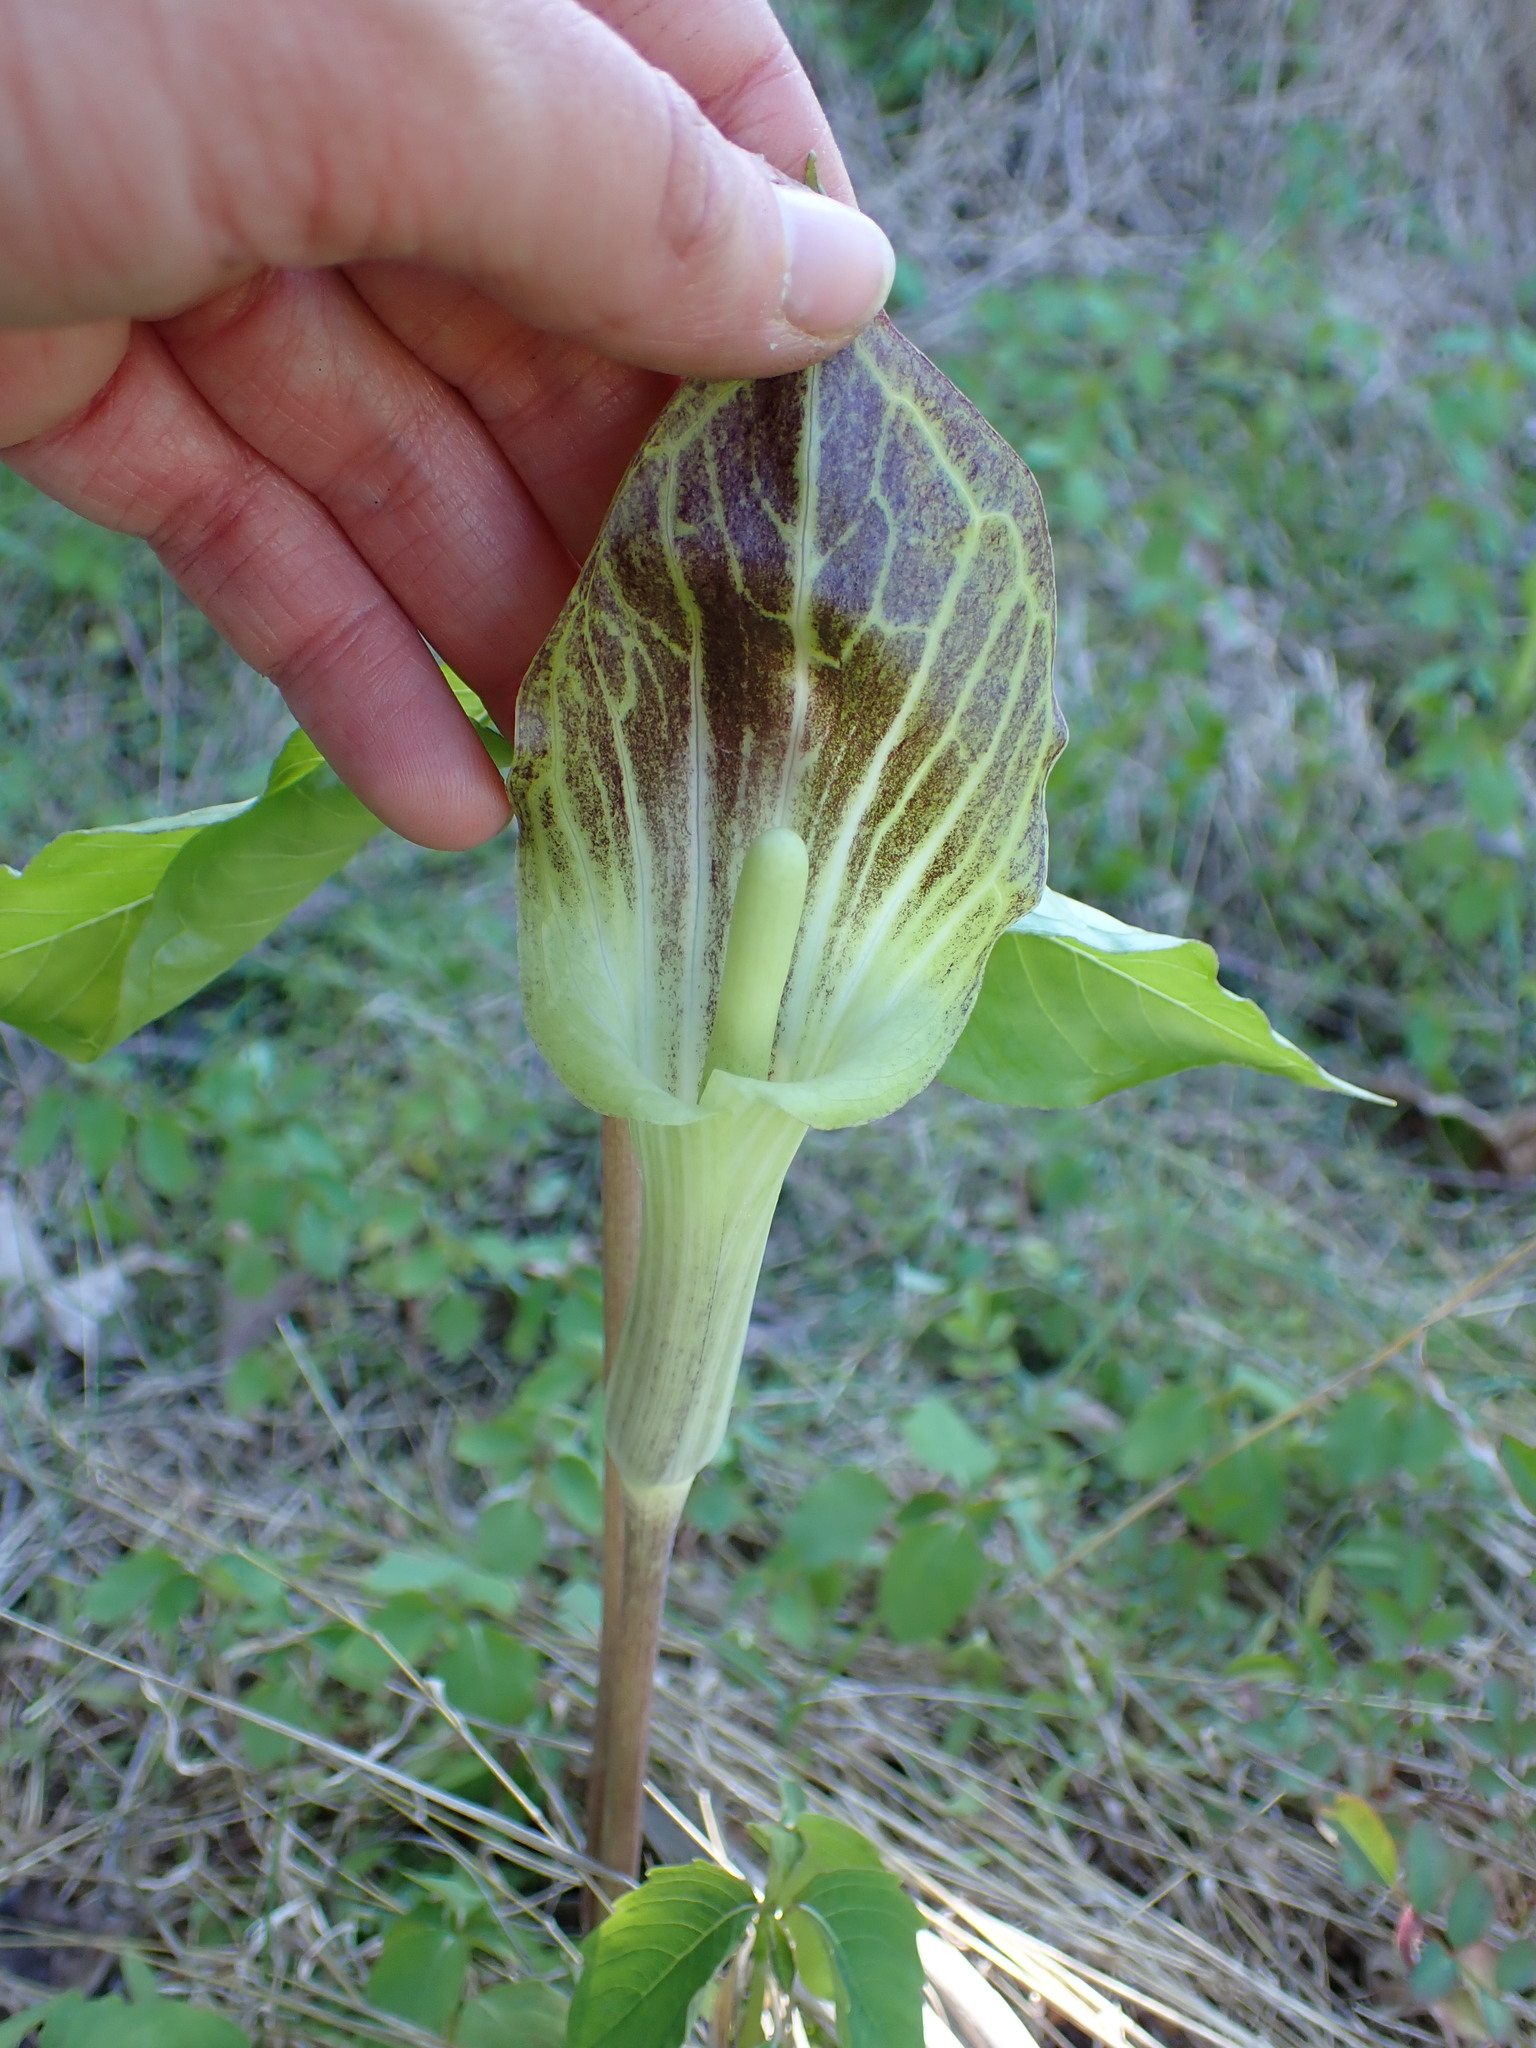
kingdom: Plantae
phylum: Tracheophyta
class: Liliopsida
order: Alismatales
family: Araceae
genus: Arisaema
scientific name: Arisaema triphyllum
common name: Jack-in-the-pulpit
